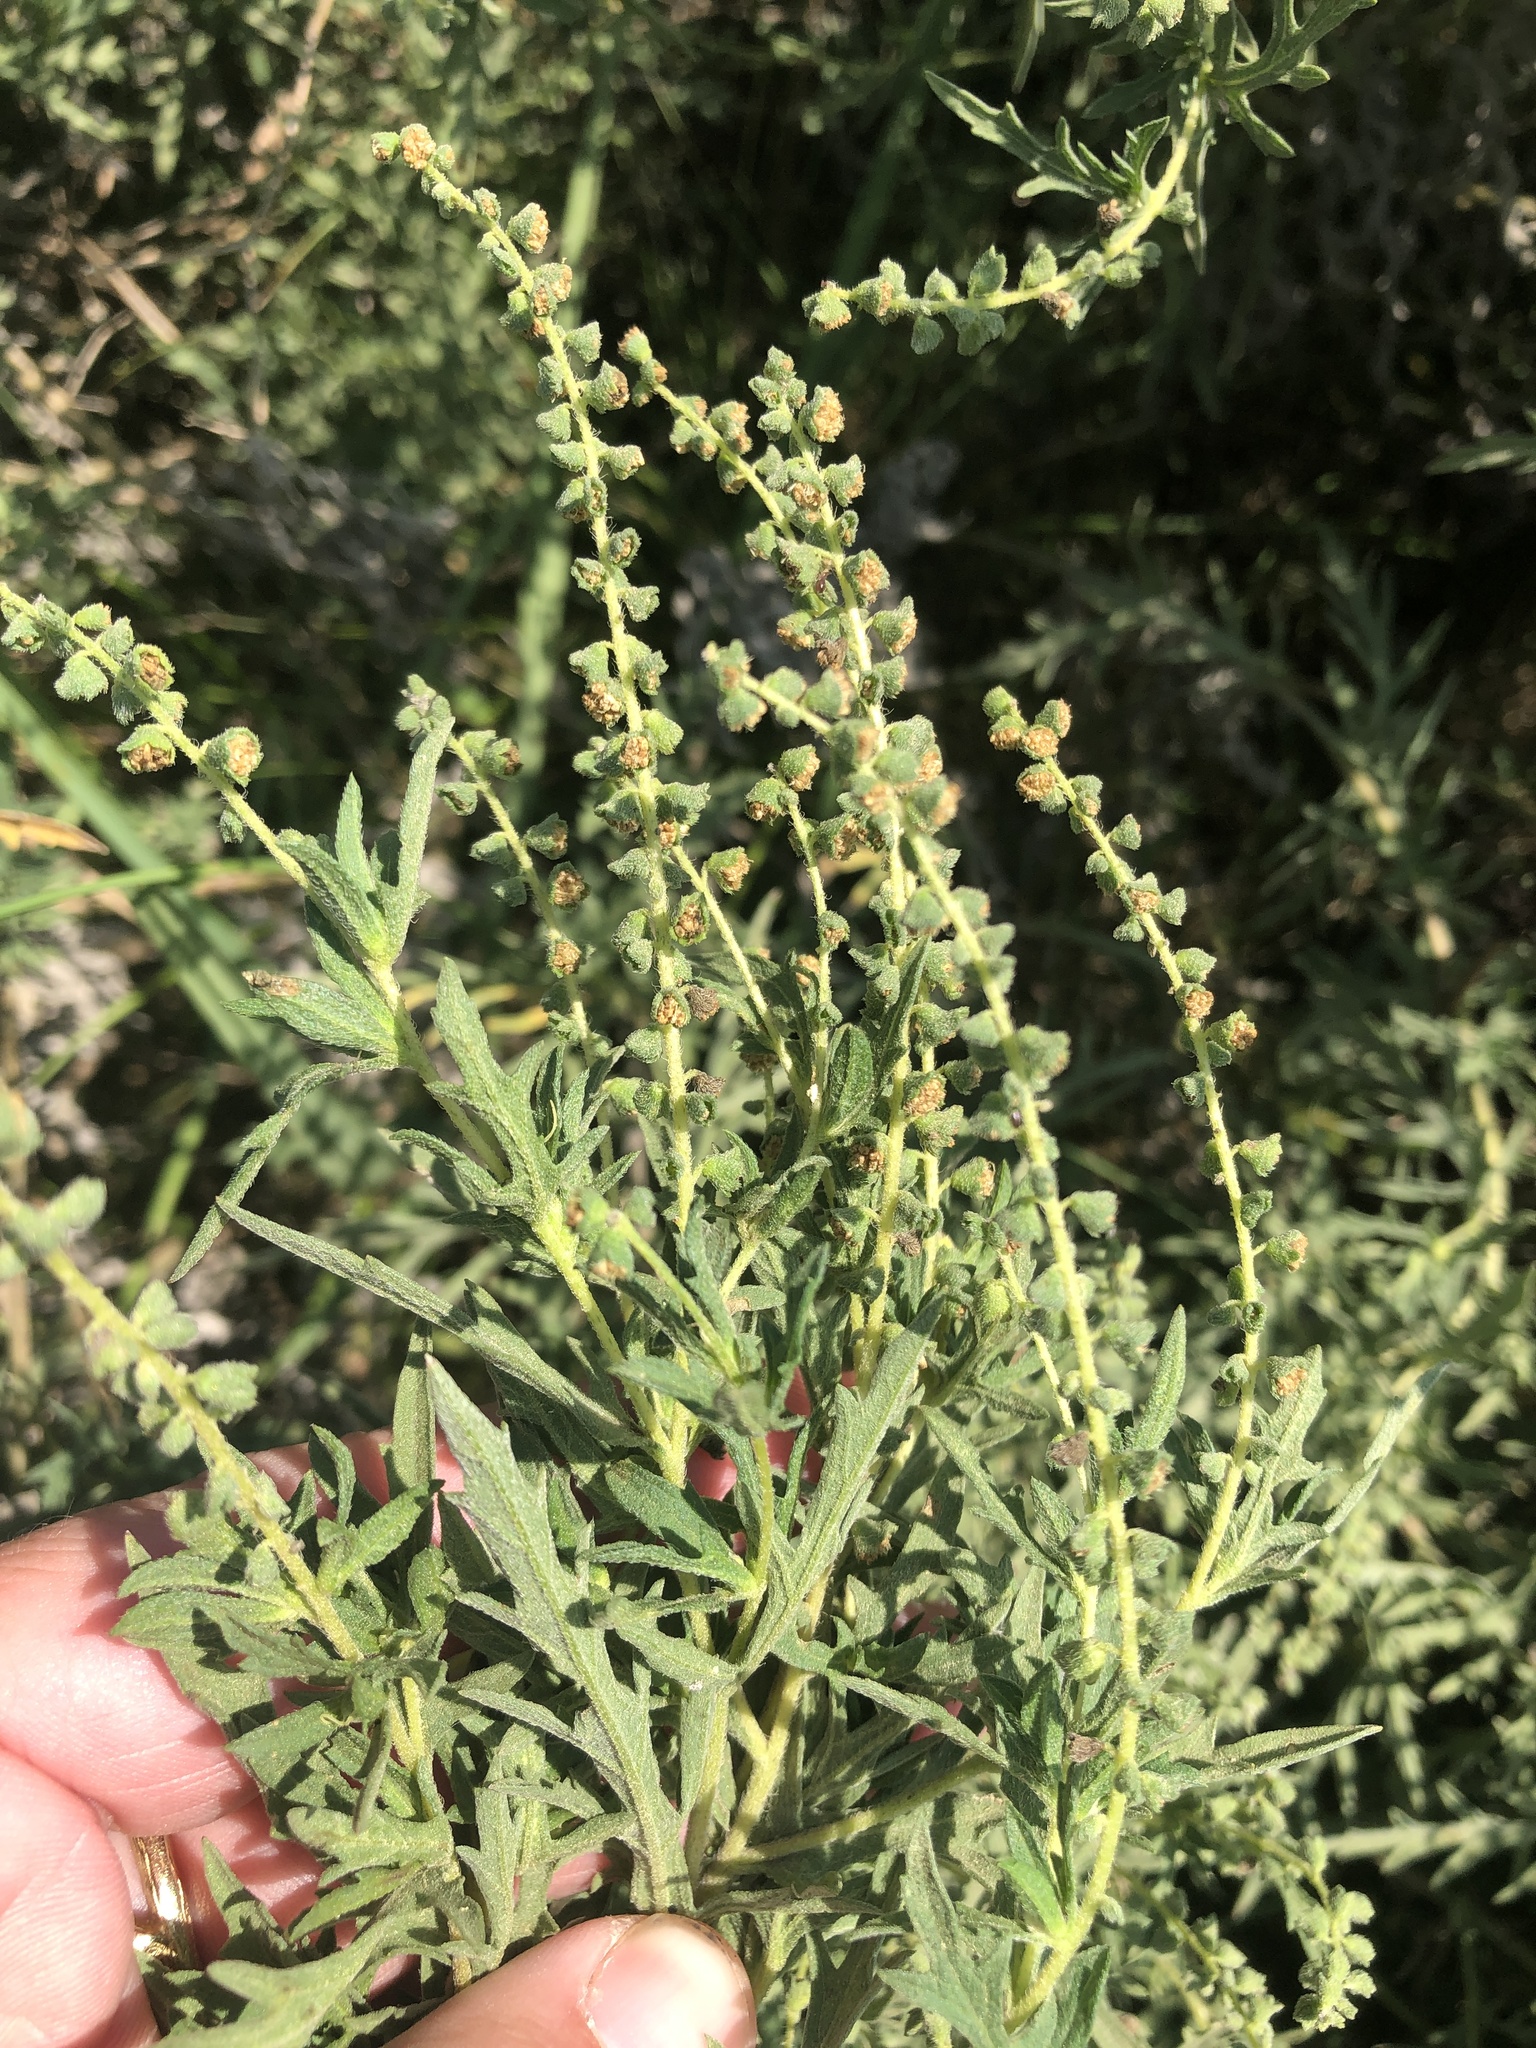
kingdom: Plantae
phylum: Tracheophyta
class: Magnoliopsida
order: Asterales
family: Asteraceae
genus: Ambrosia
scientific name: Ambrosia psilostachya
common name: Perennial ragweed
